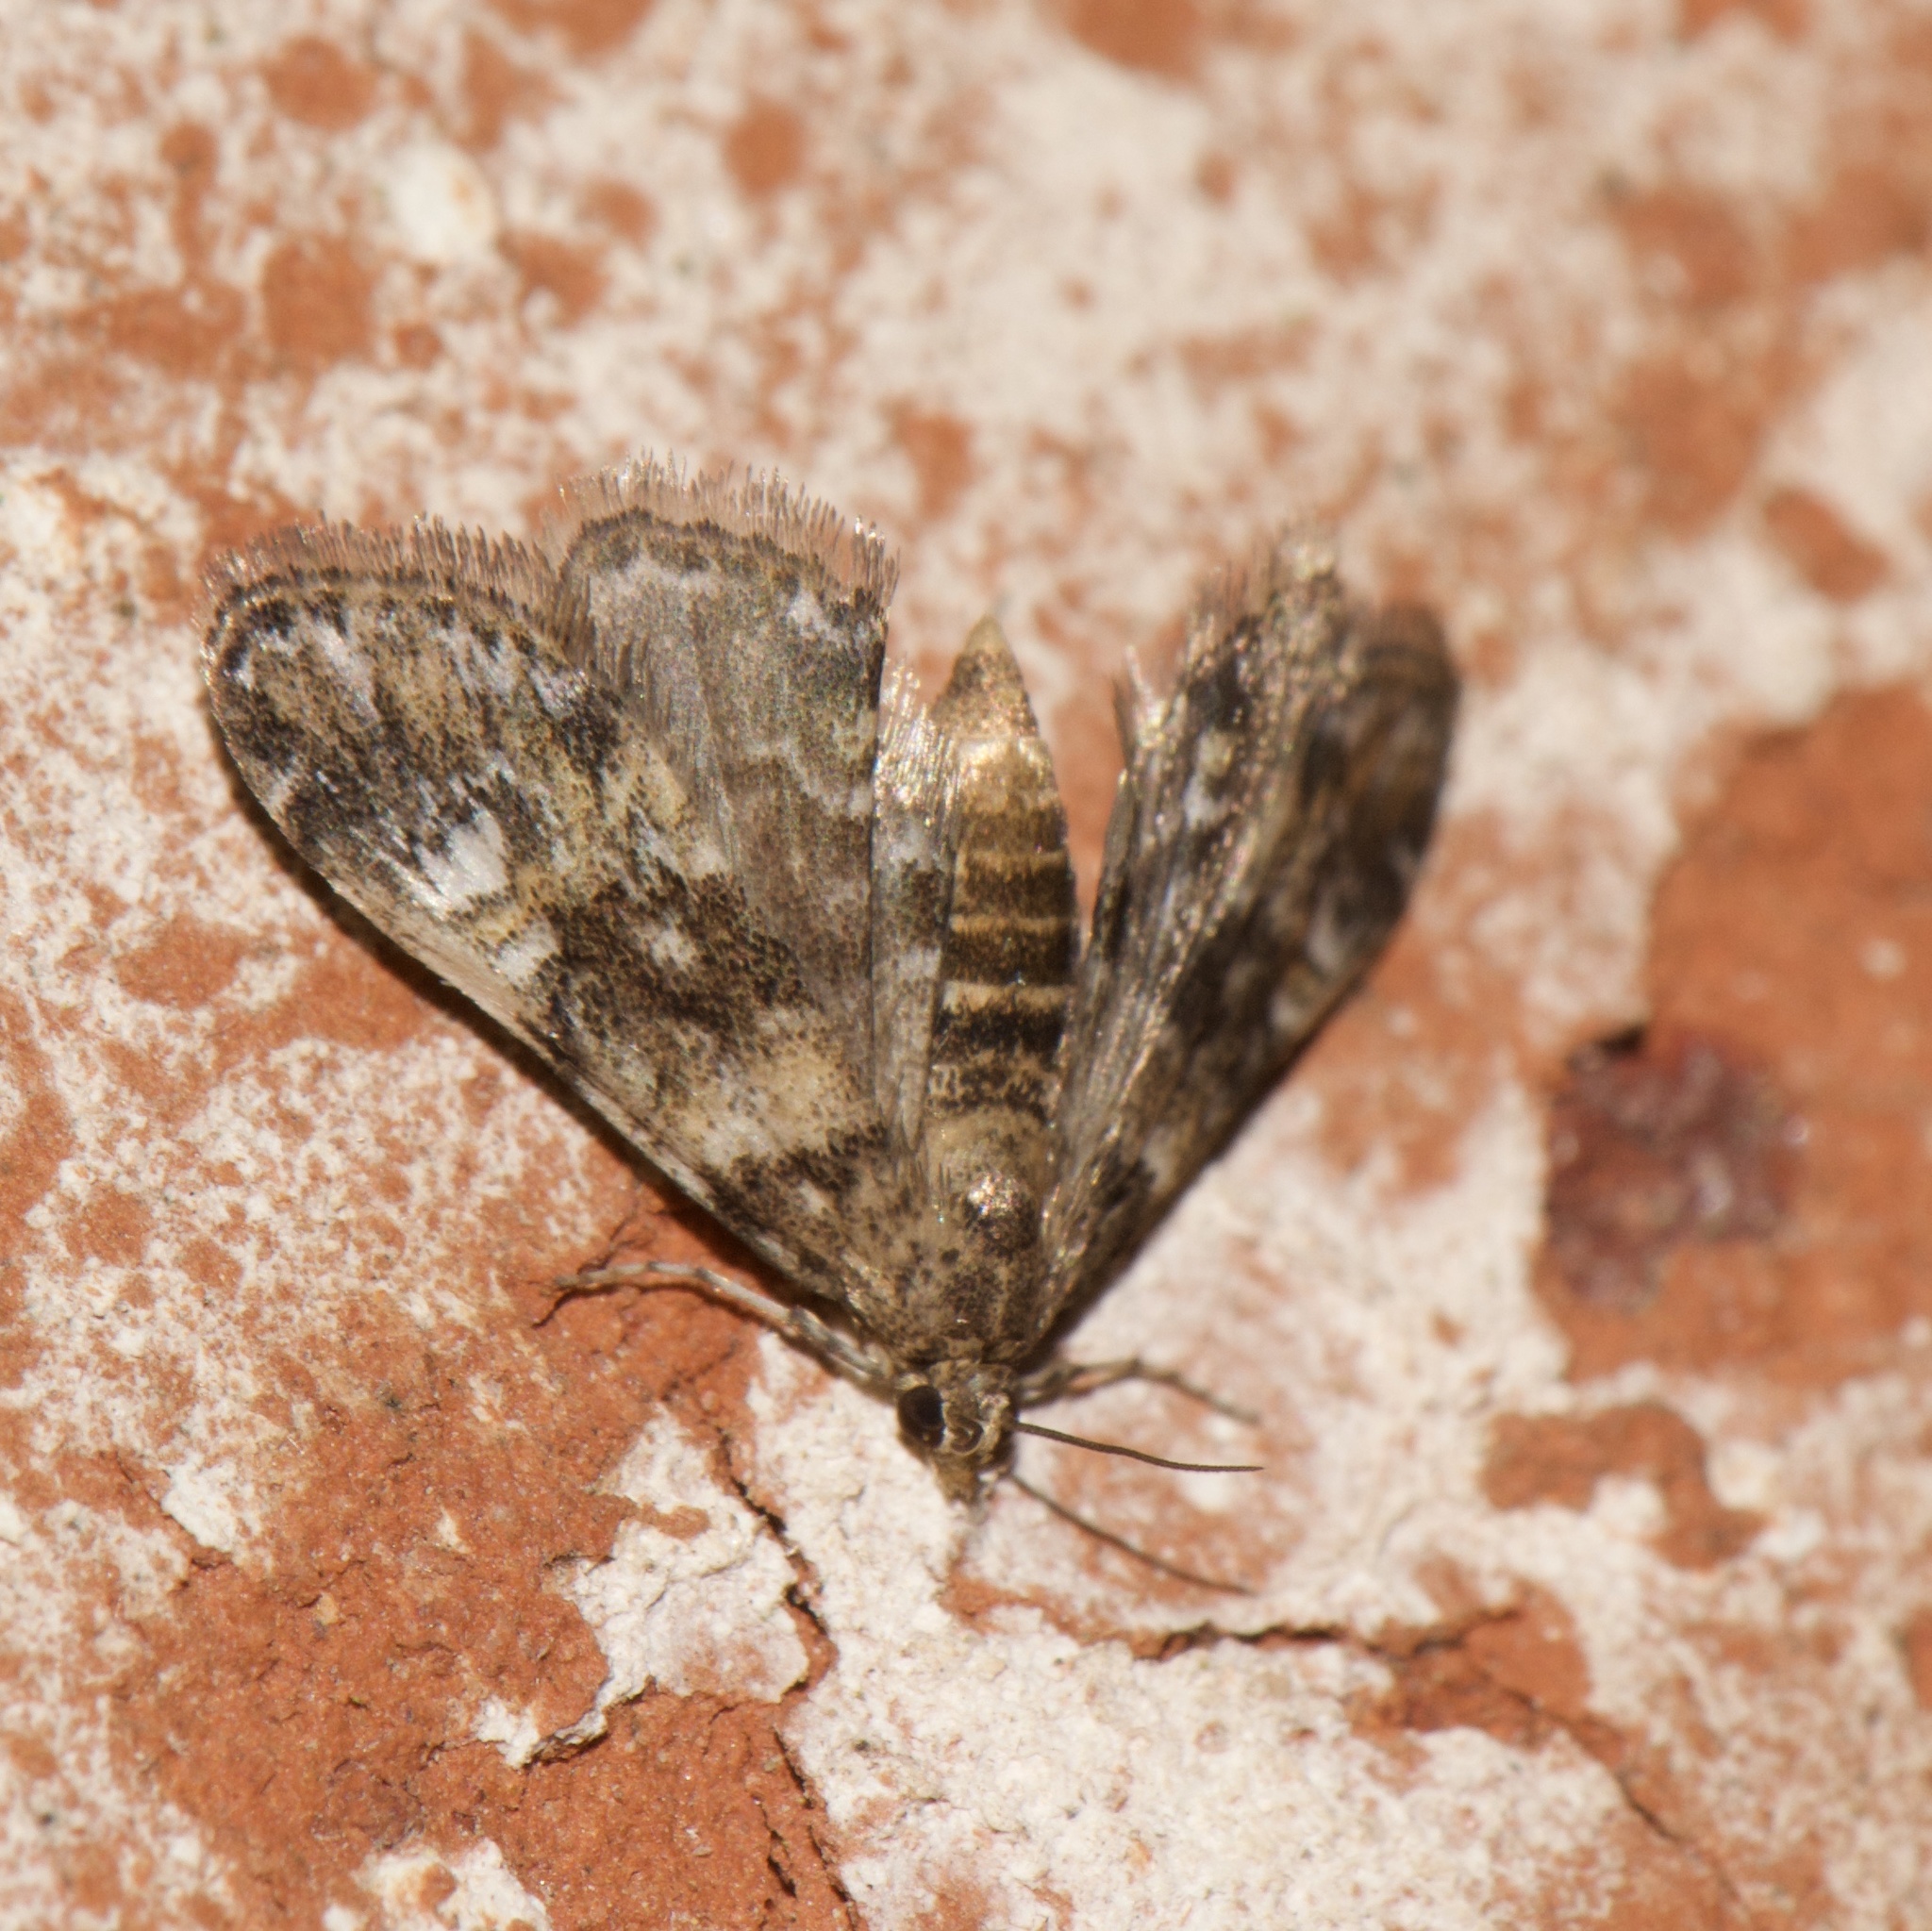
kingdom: Animalia
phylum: Arthropoda
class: Insecta
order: Lepidoptera
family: Crambidae
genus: Elophila
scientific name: Elophila obliteralis
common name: Waterlily leafcutter moth
